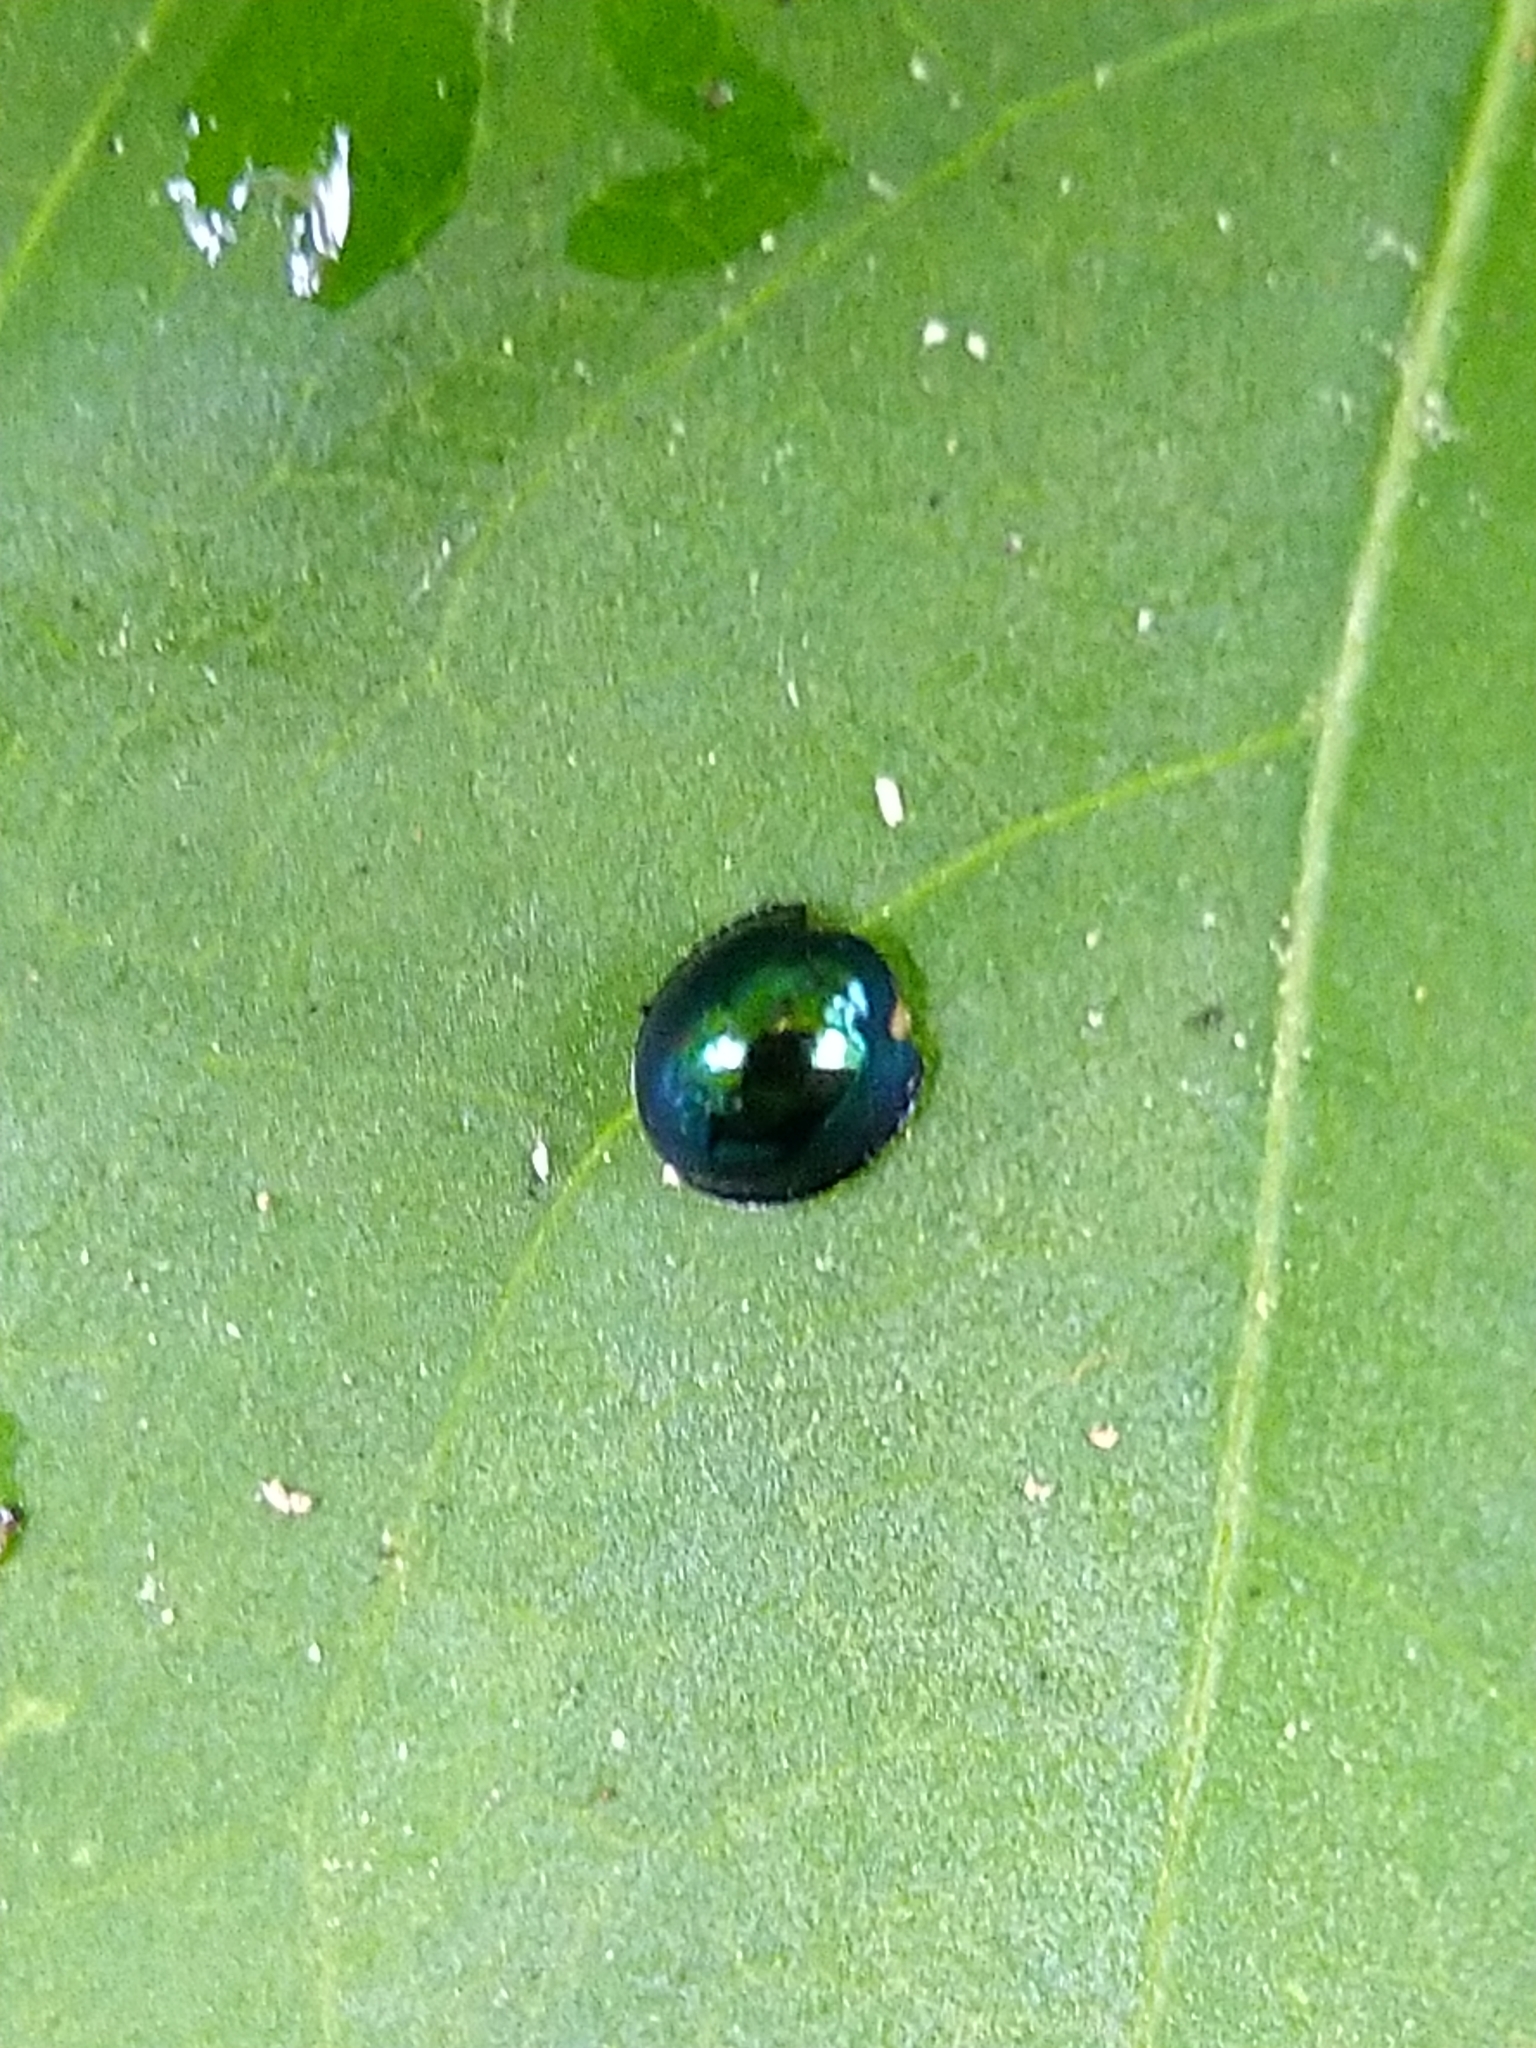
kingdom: Animalia
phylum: Arthropoda
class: Insecta
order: Coleoptera
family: Coccinellidae
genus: Halmus
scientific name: Halmus chalybeus
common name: Steel blue ladybird beetle
